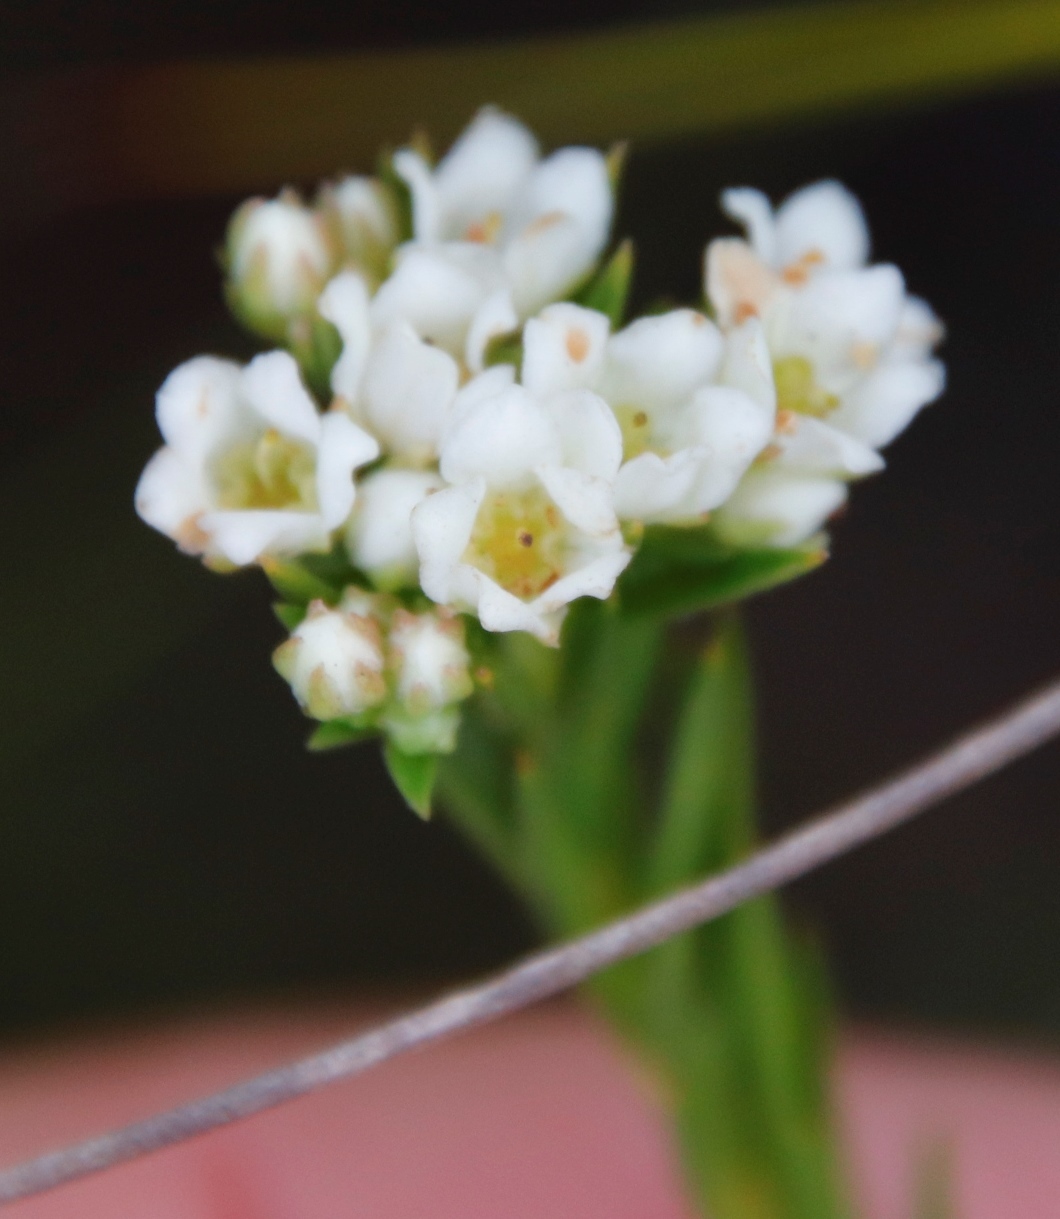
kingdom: Plantae
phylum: Tracheophyta
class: Magnoliopsida
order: Sapindales
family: Rutaceae
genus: Diosma
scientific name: Diosma hirsuta
